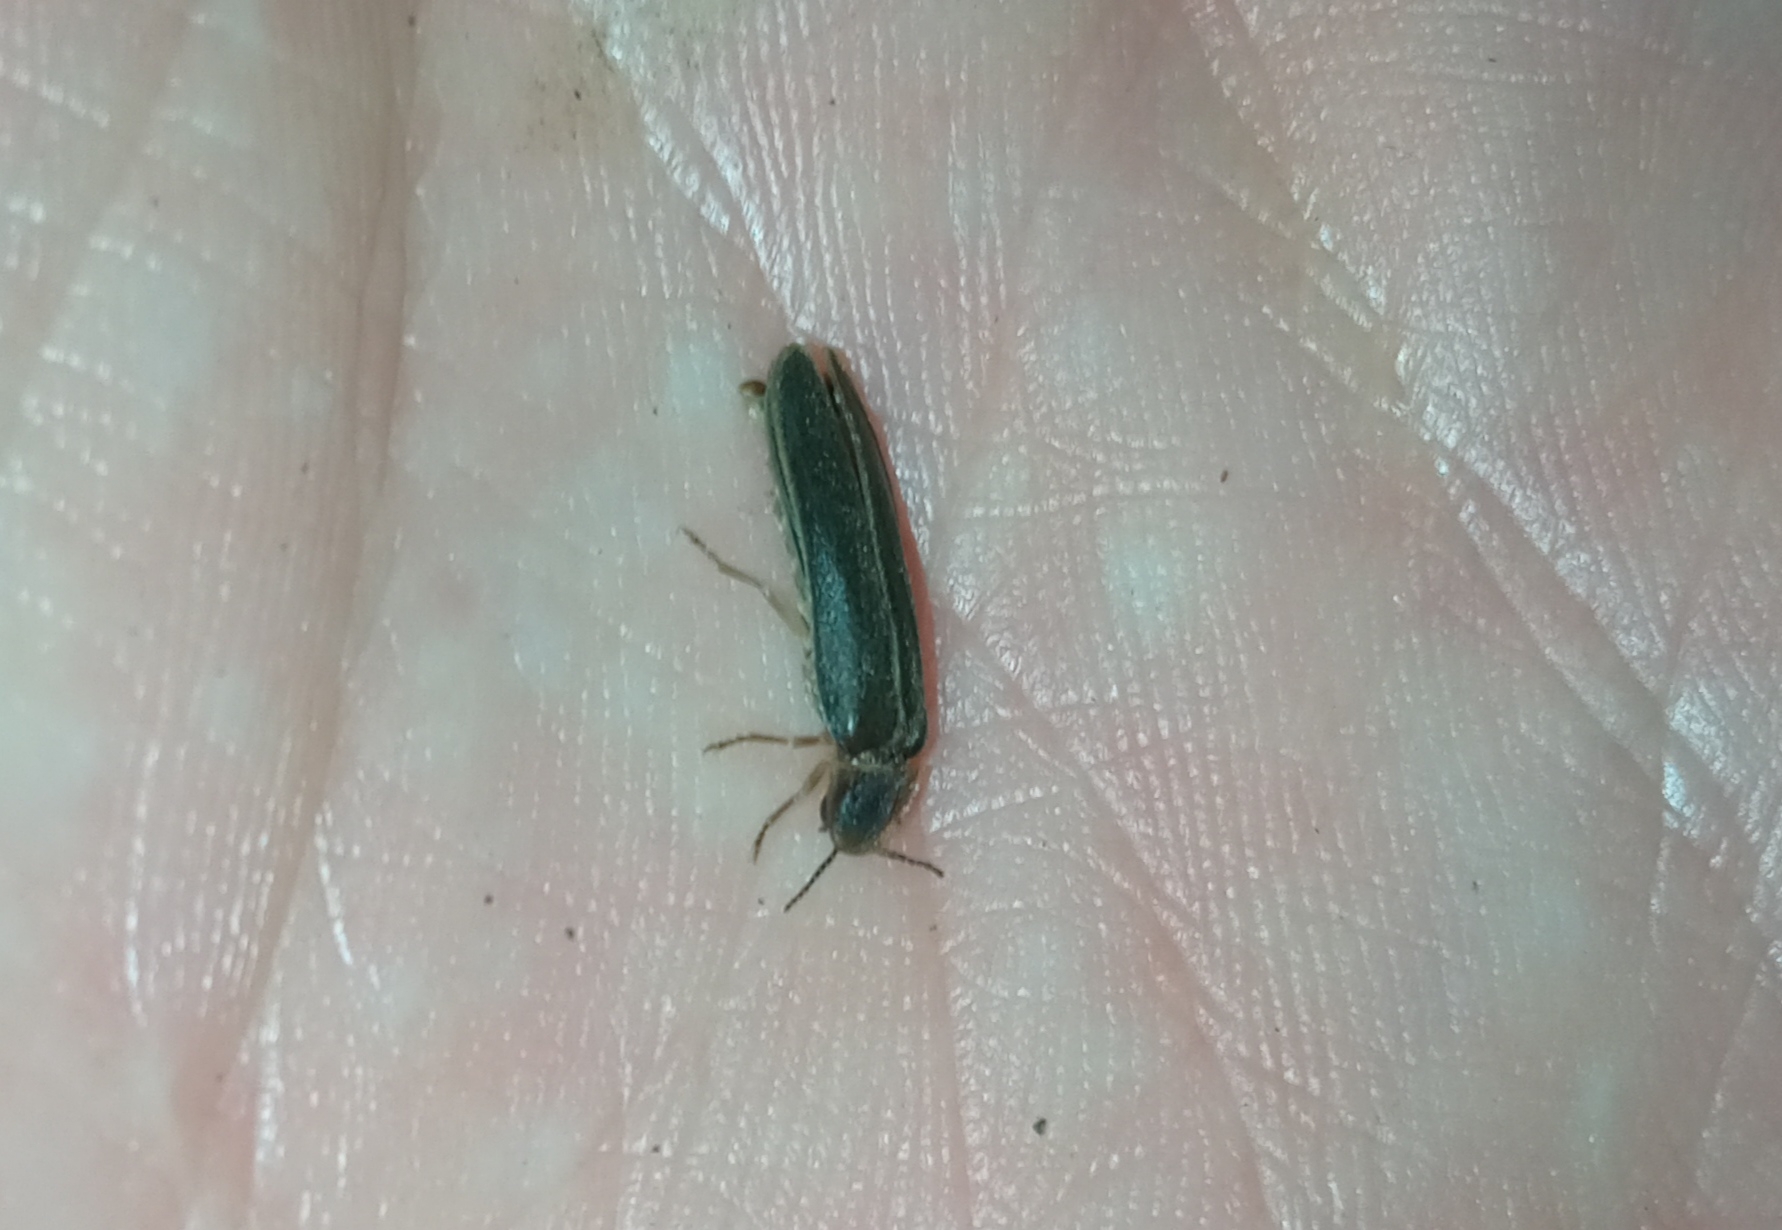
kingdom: Animalia
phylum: Arthropoda
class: Insecta
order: Coleoptera
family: Lampyridae
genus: Lampyris
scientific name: Lampyris noctiluca
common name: Glow-worm
